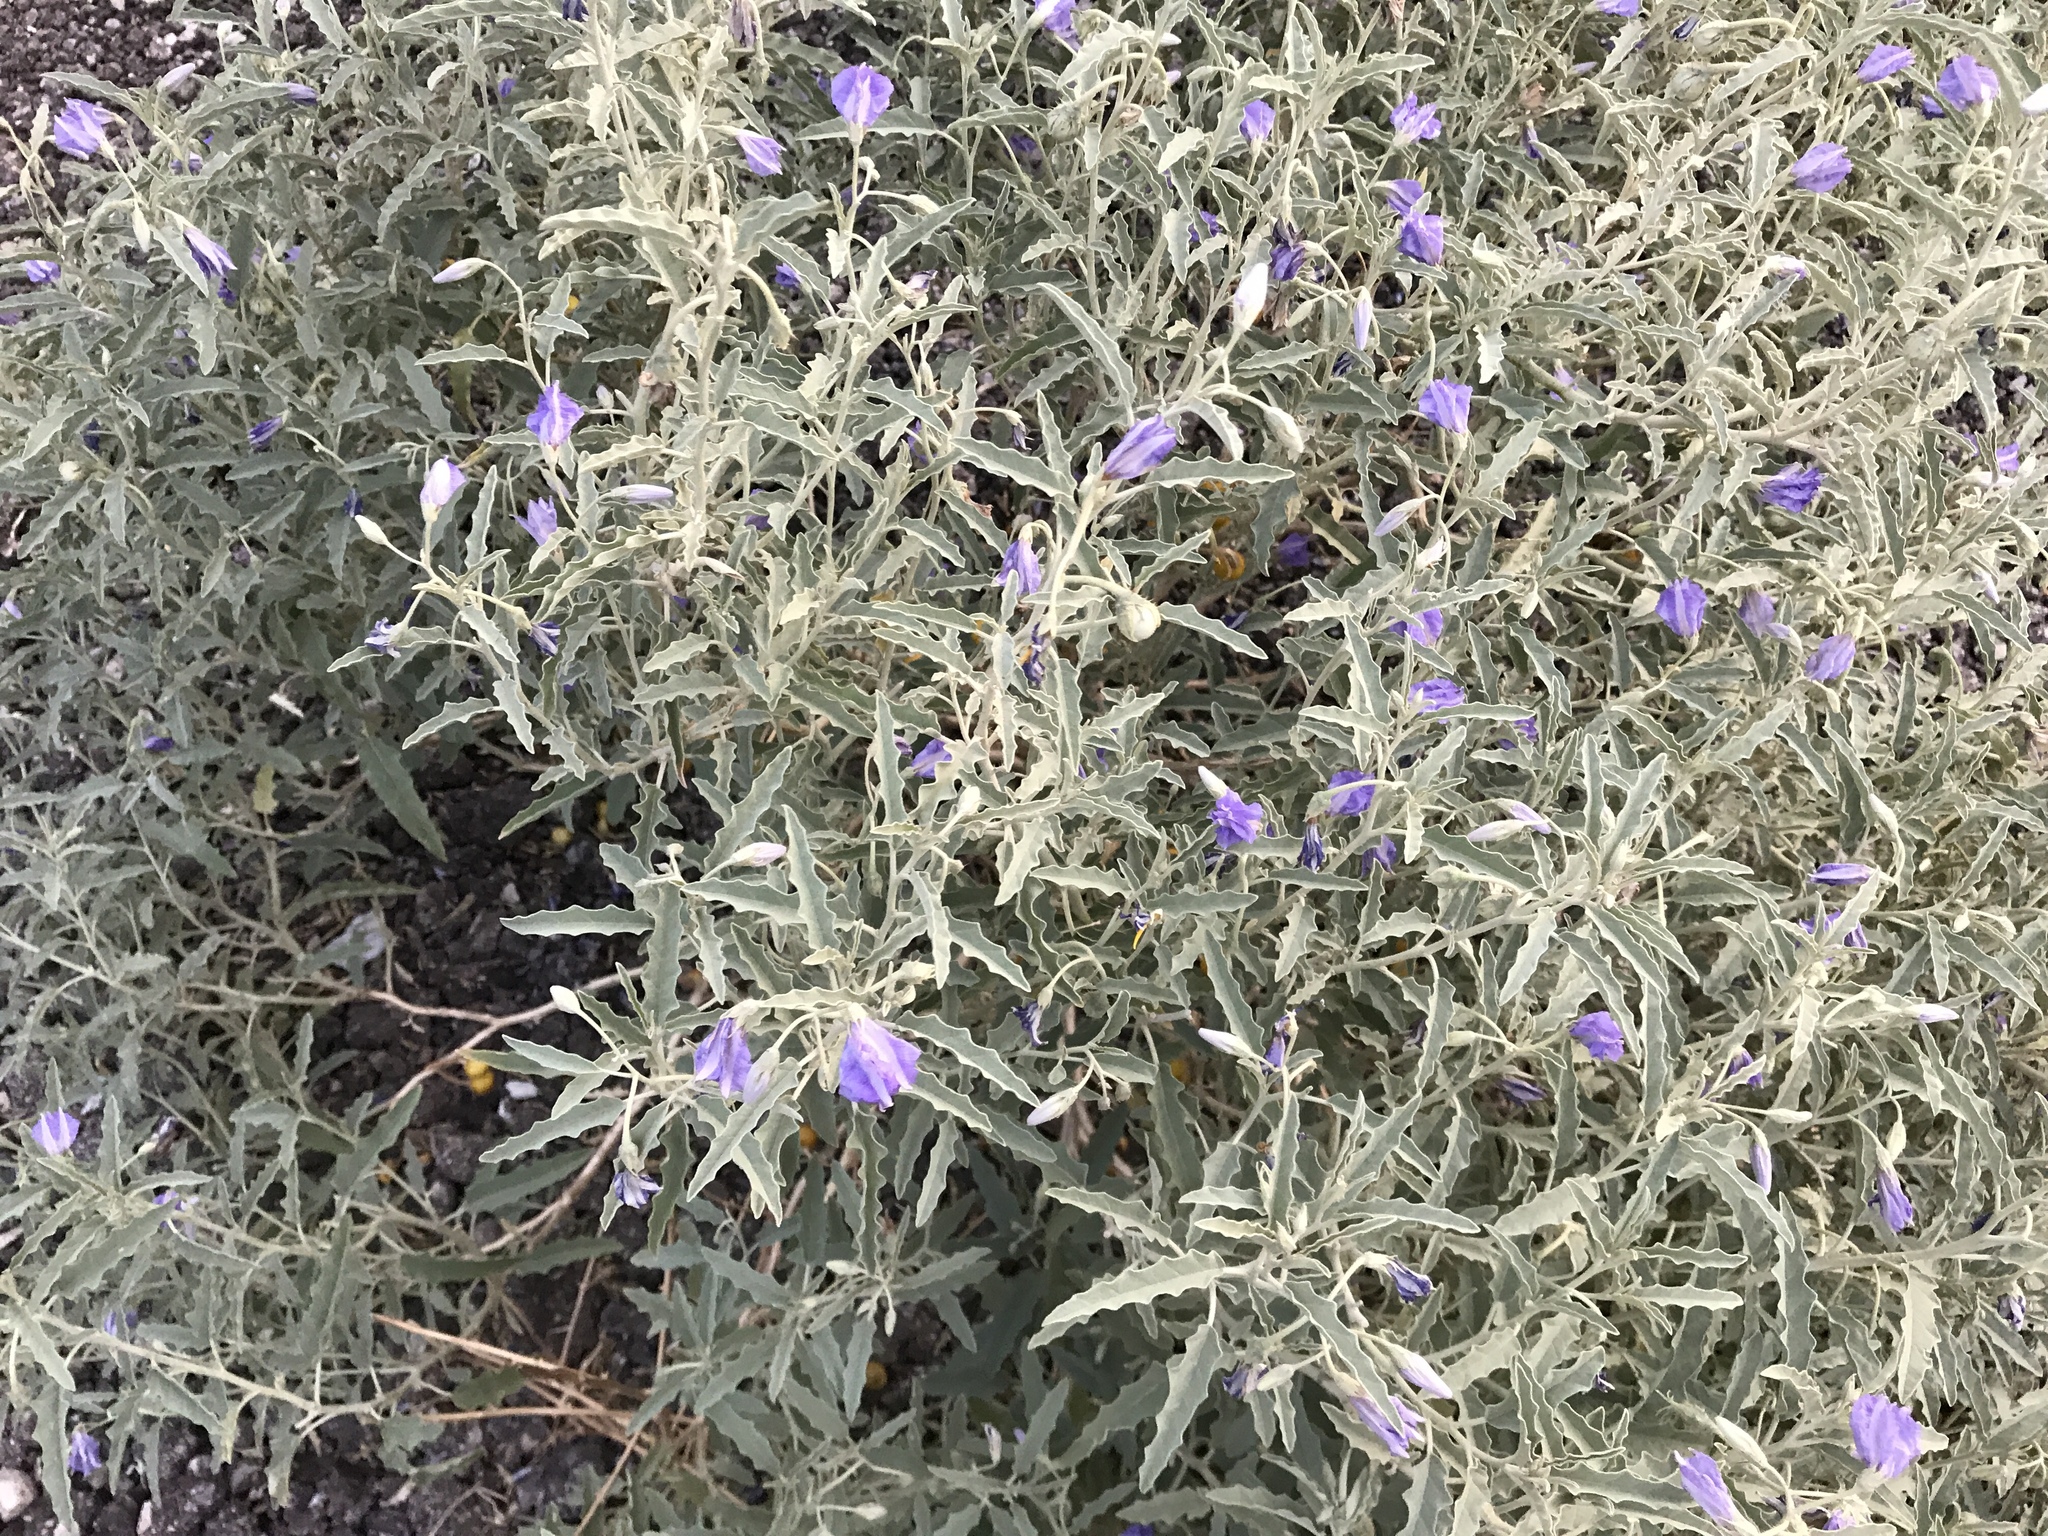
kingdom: Plantae
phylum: Tracheophyta
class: Magnoliopsida
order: Solanales
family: Solanaceae
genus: Solanum
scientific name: Solanum elaeagnifolium
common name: Silverleaf nightshade
